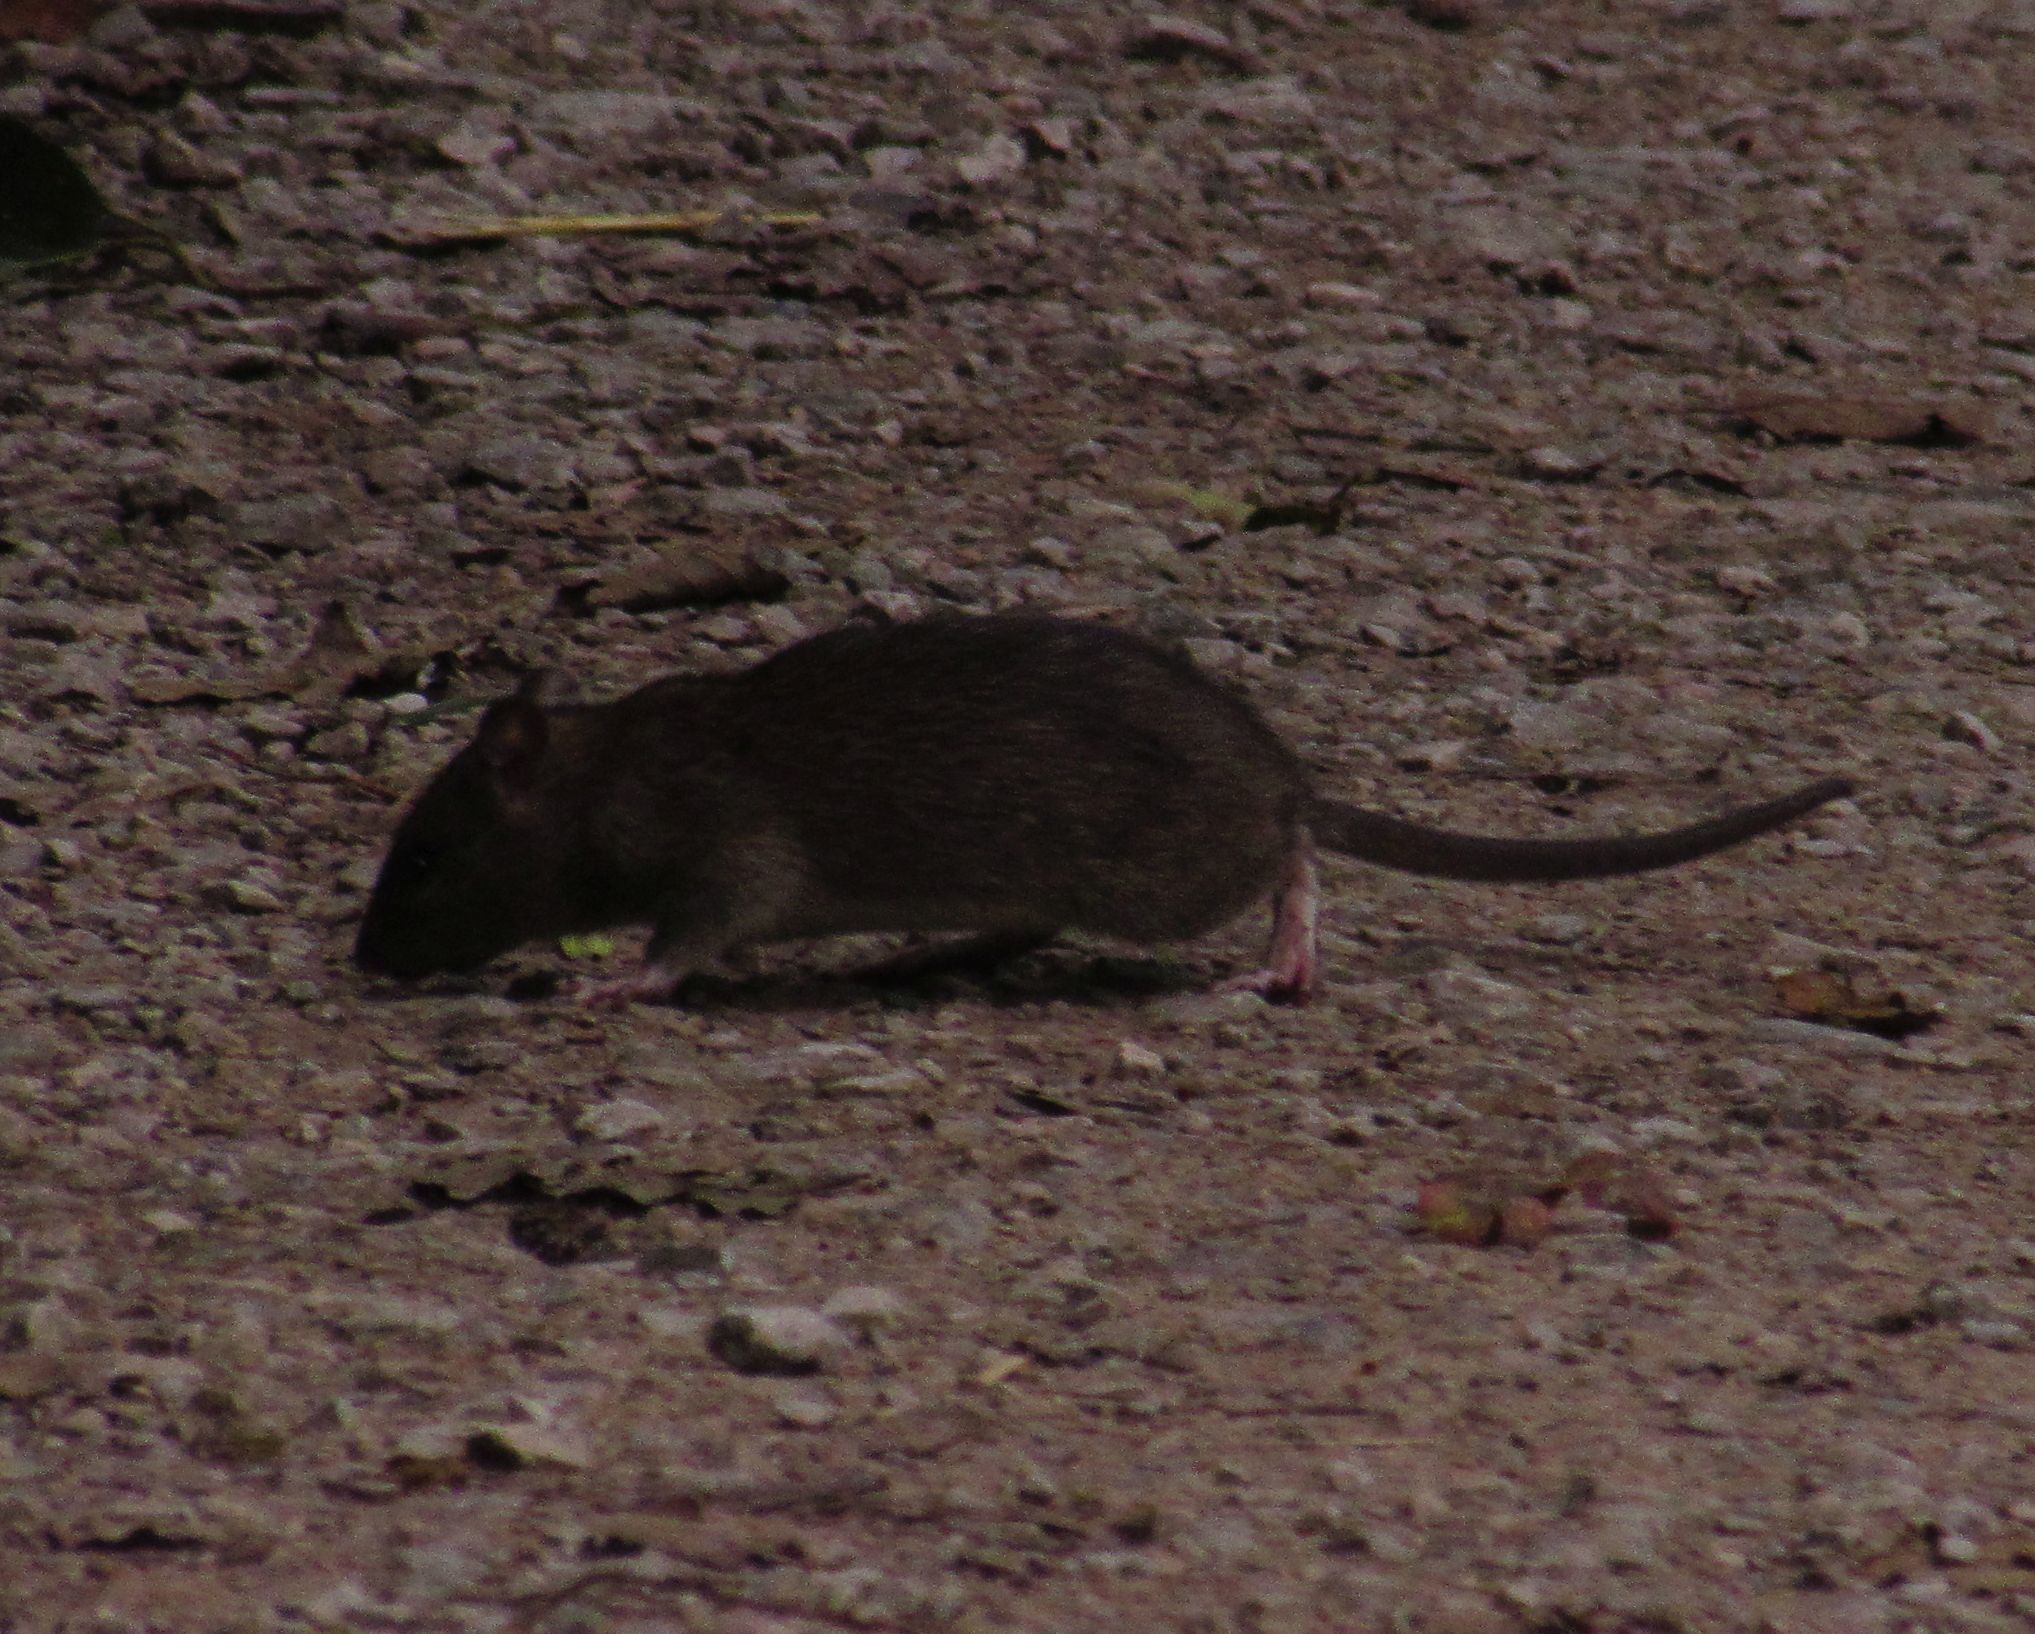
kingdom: Animalia
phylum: Chordata
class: Mammalia
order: Rodentia
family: Muridae
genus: Rattus
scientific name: Rattus norvegicus
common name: Brown rat
